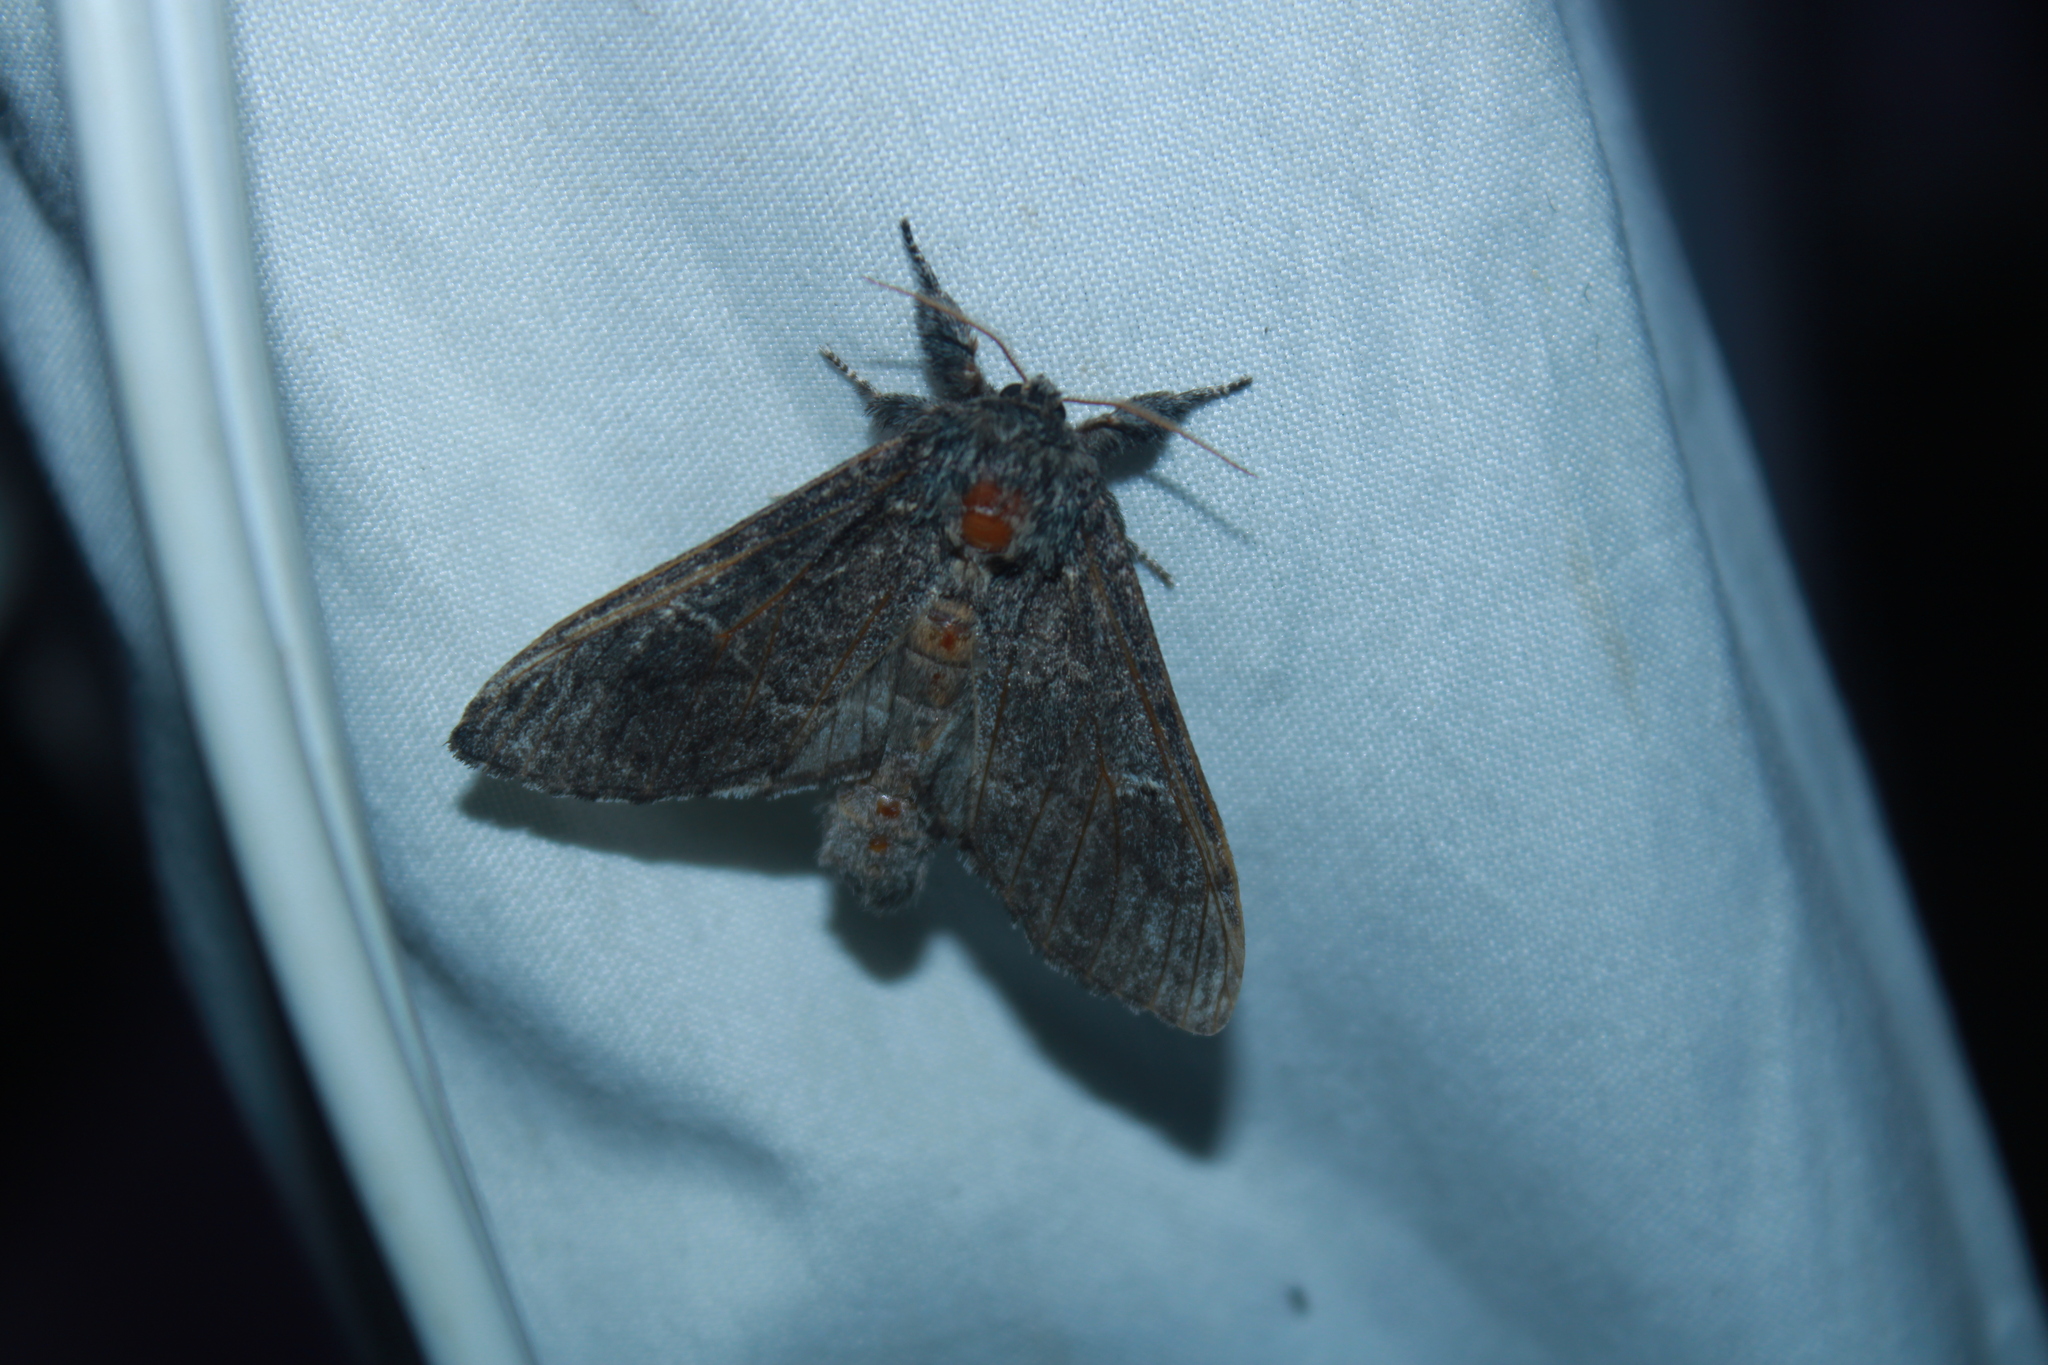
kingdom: Animalia
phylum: Arthropoda
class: Insecta
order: Lepidoptera
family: Notodontidae
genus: Notodonta
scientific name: Notodonta torva
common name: Large dark prominent
